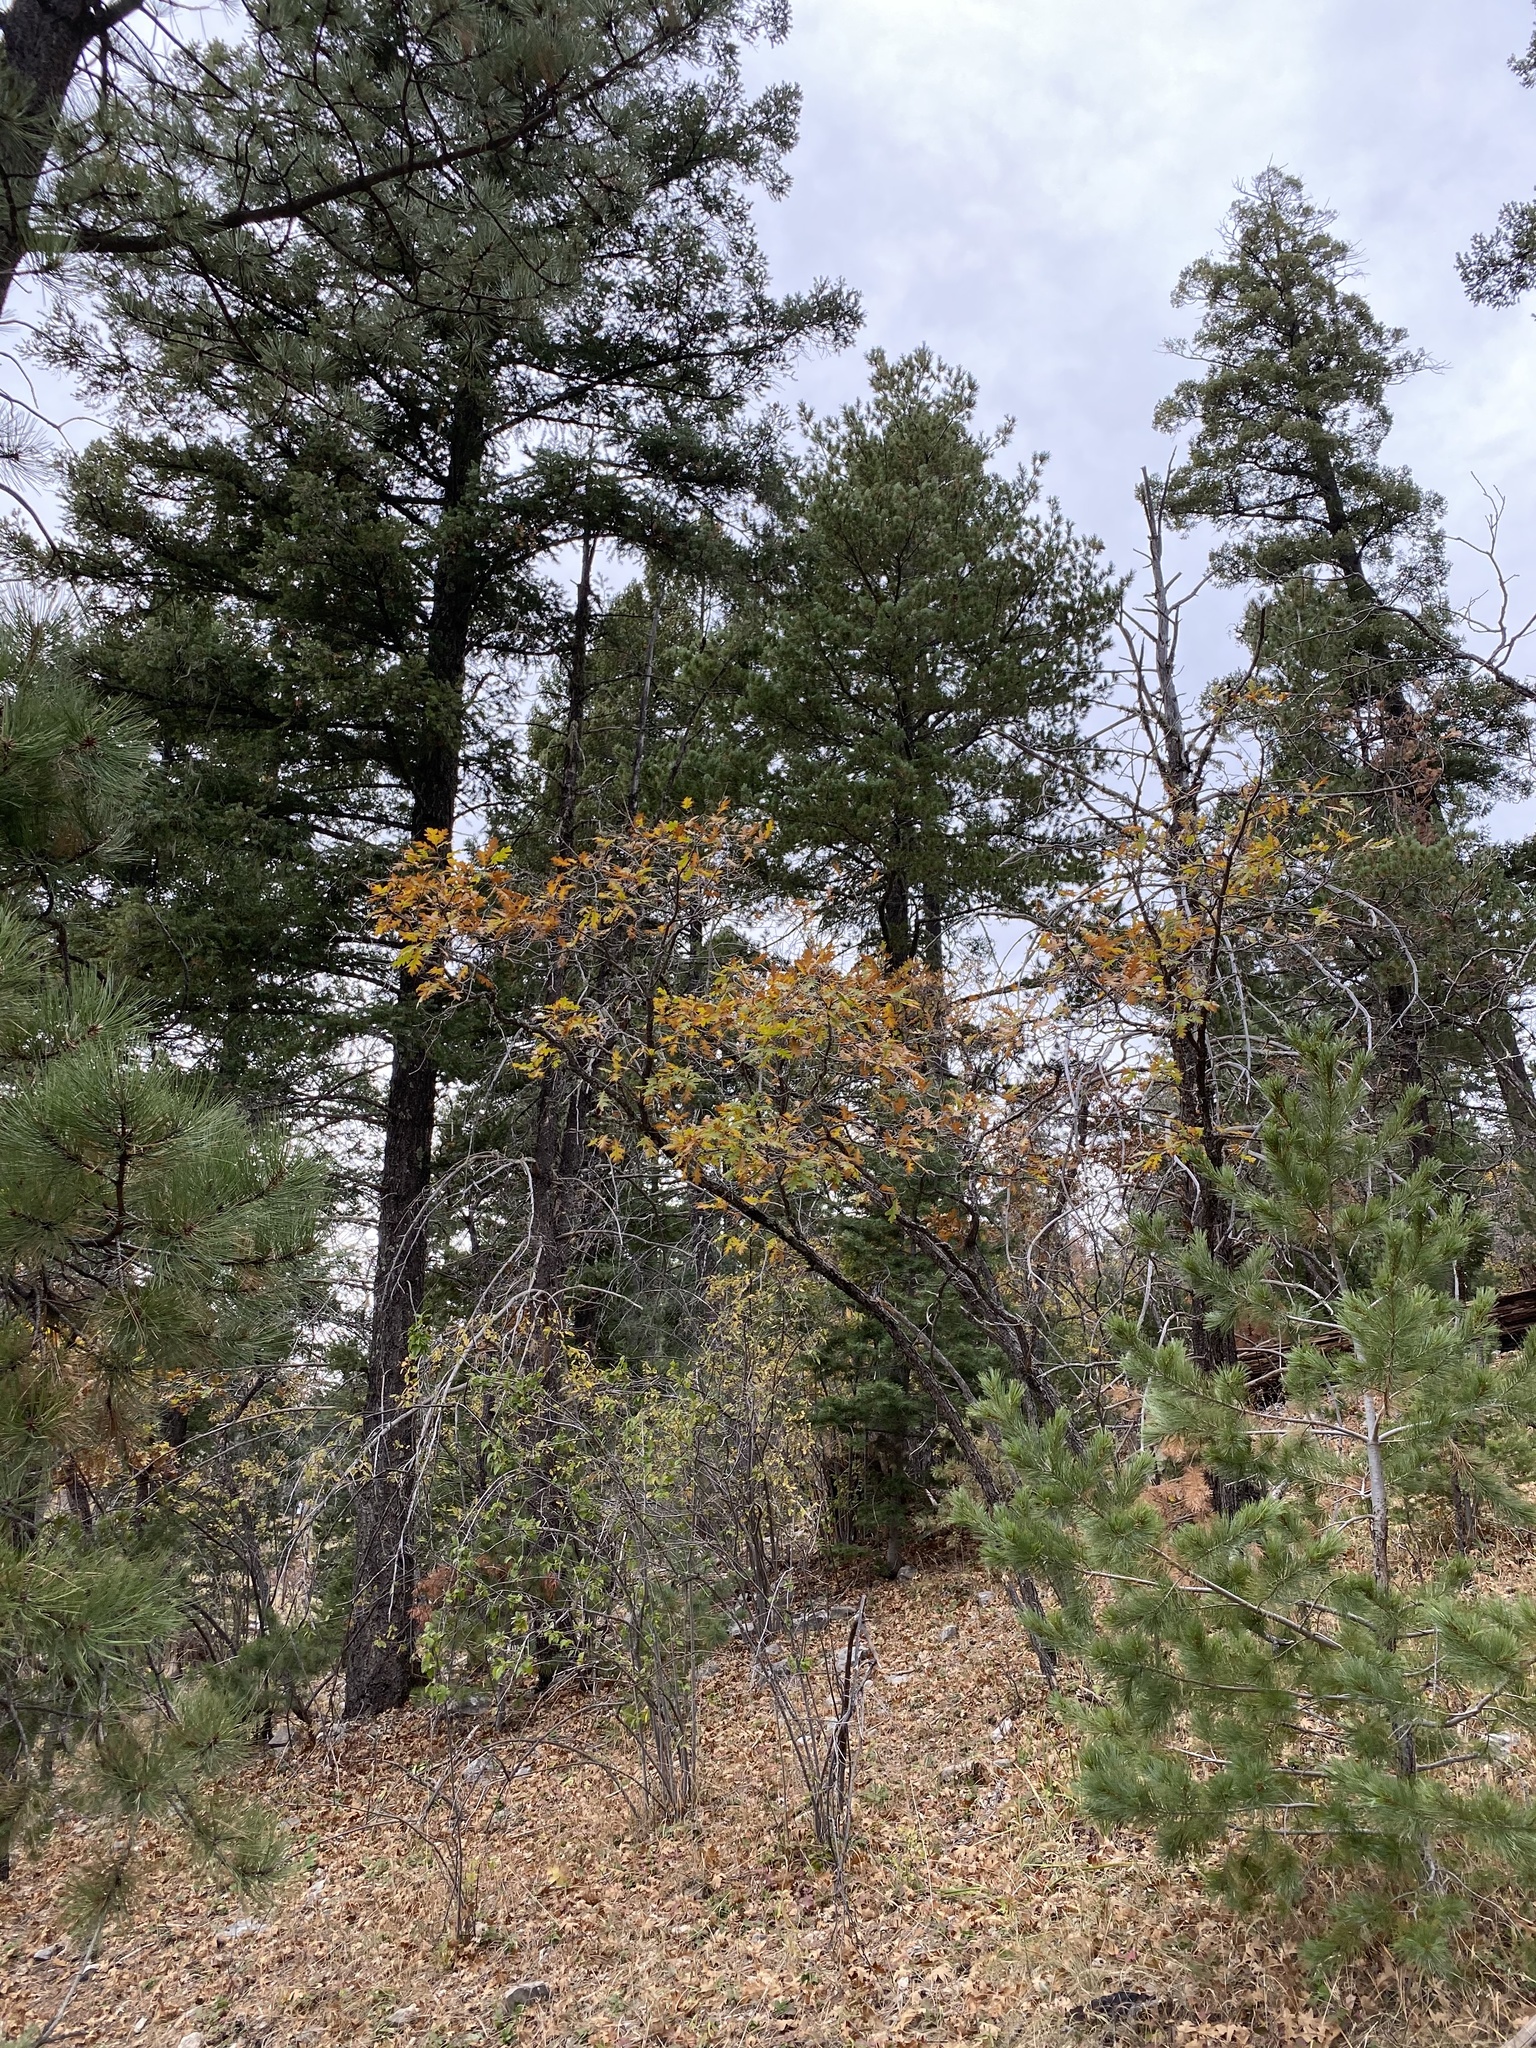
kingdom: Plantae
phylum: Tracheophyta
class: Magnoliopsida
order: Fagales
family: Fagaceae
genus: Quercus
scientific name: Quercus gambelii
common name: Gambel oak
